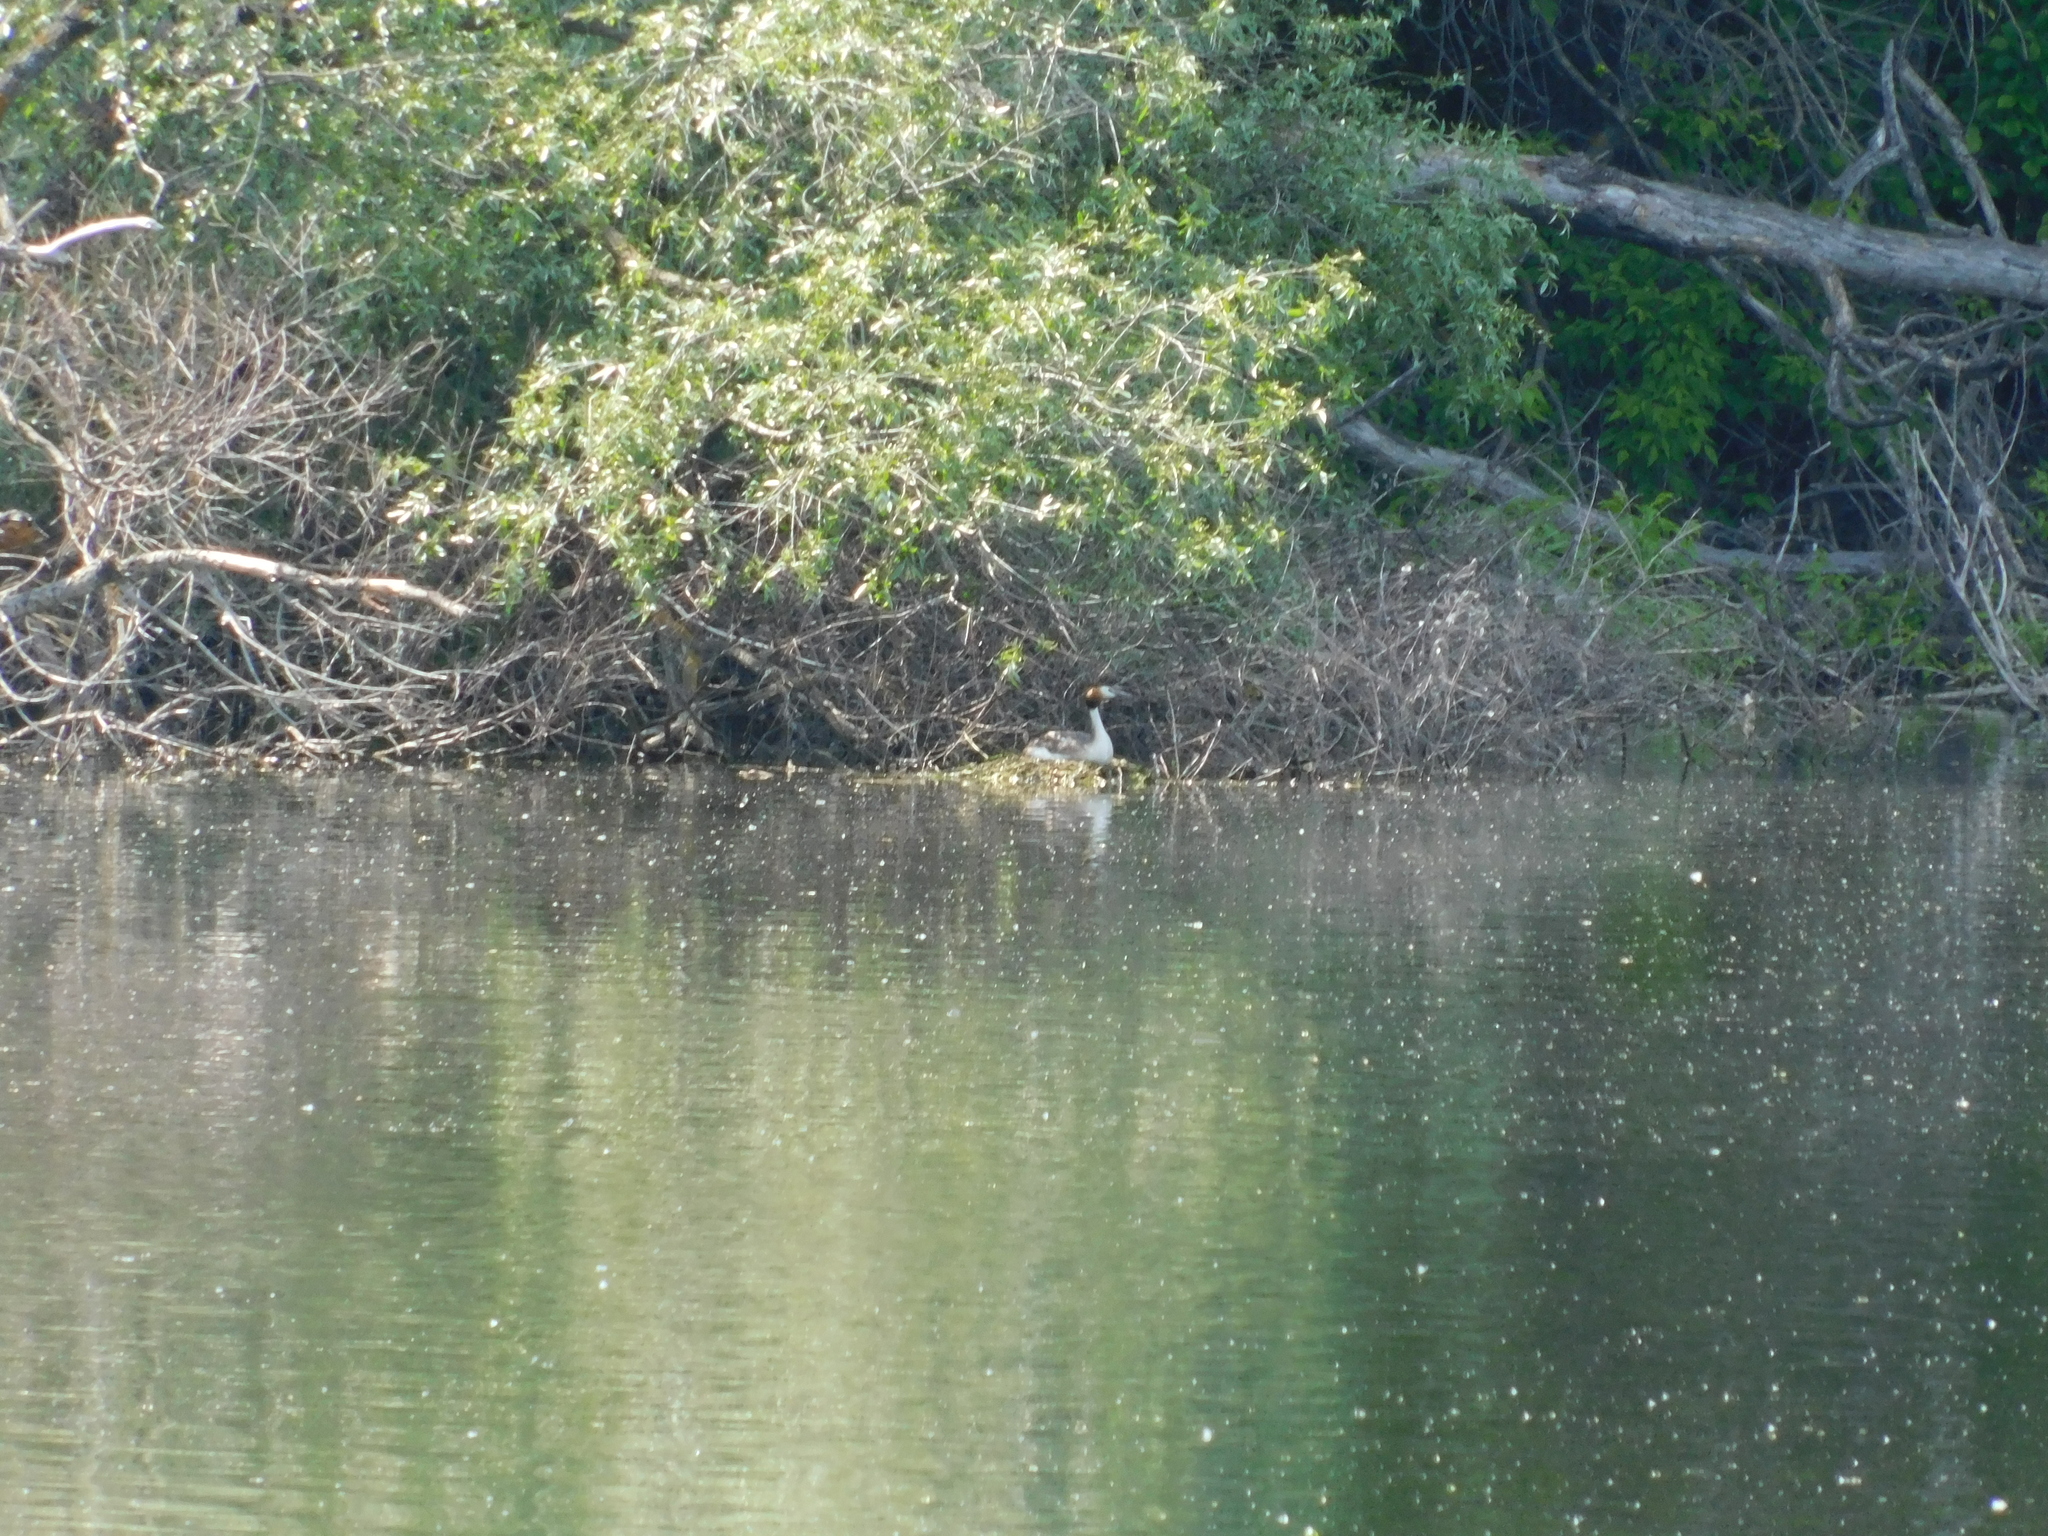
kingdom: Animalia
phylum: Chordata
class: Aves
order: Podicipediformes
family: Podicipedidae
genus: Podiceps
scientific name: Podiceps cristatus
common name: Great crested grebe
